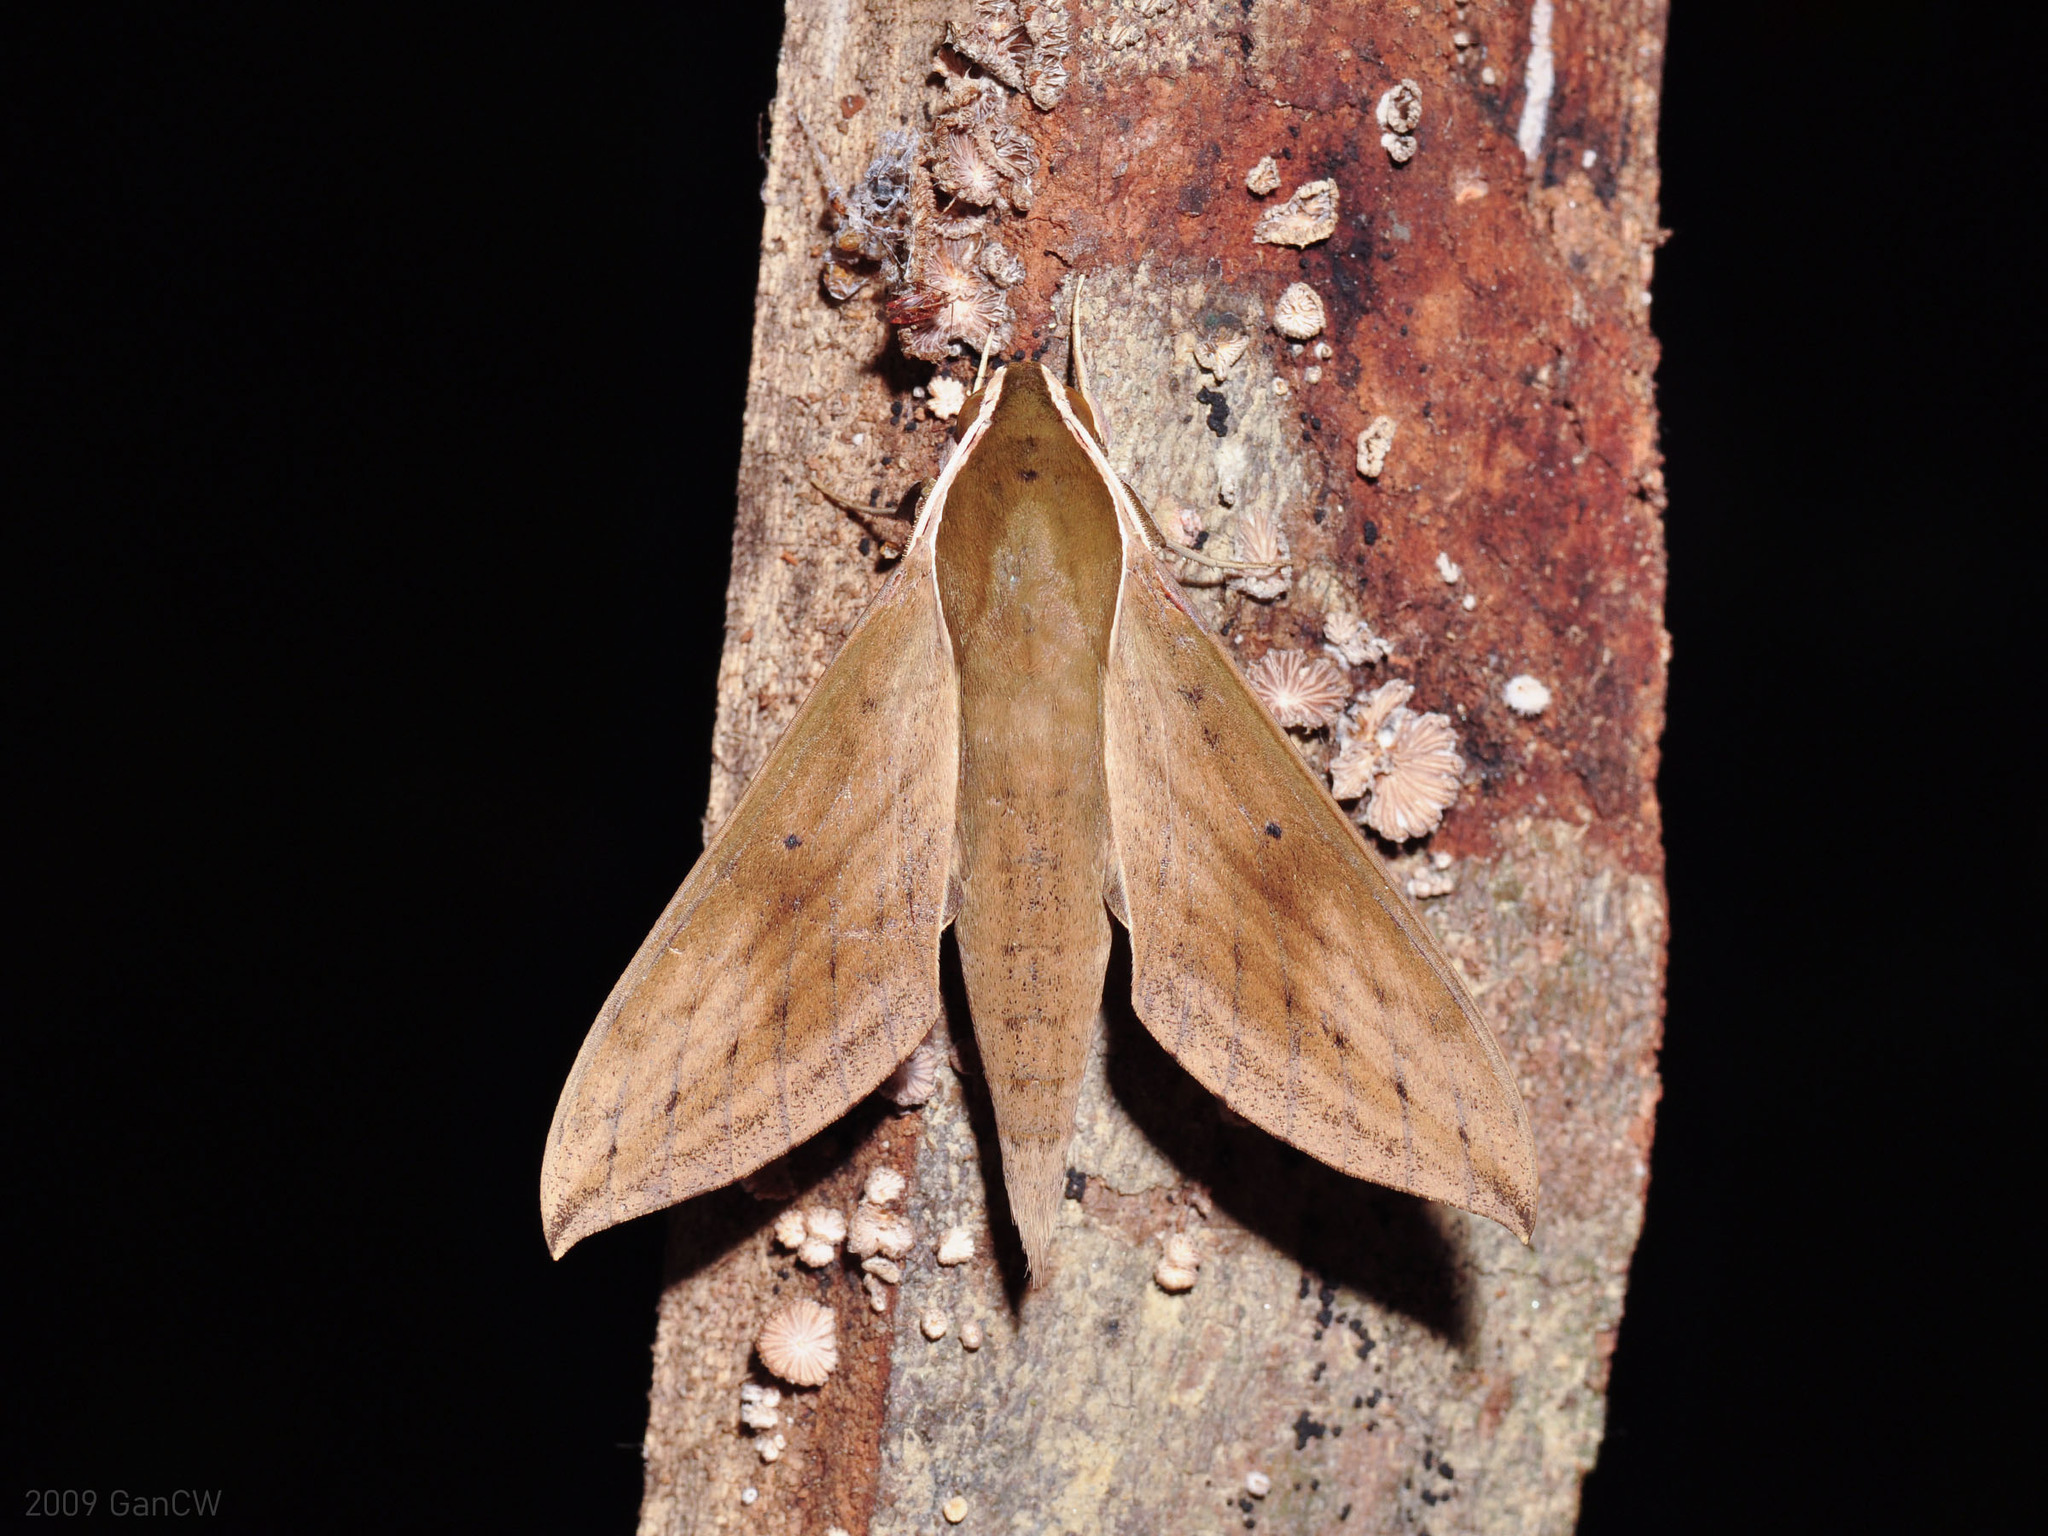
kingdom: Animalia
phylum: Arthropoda
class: Insecta
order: Lepidoptera
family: Sphingidae
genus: Theretra
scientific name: Theretra sumatrensis
